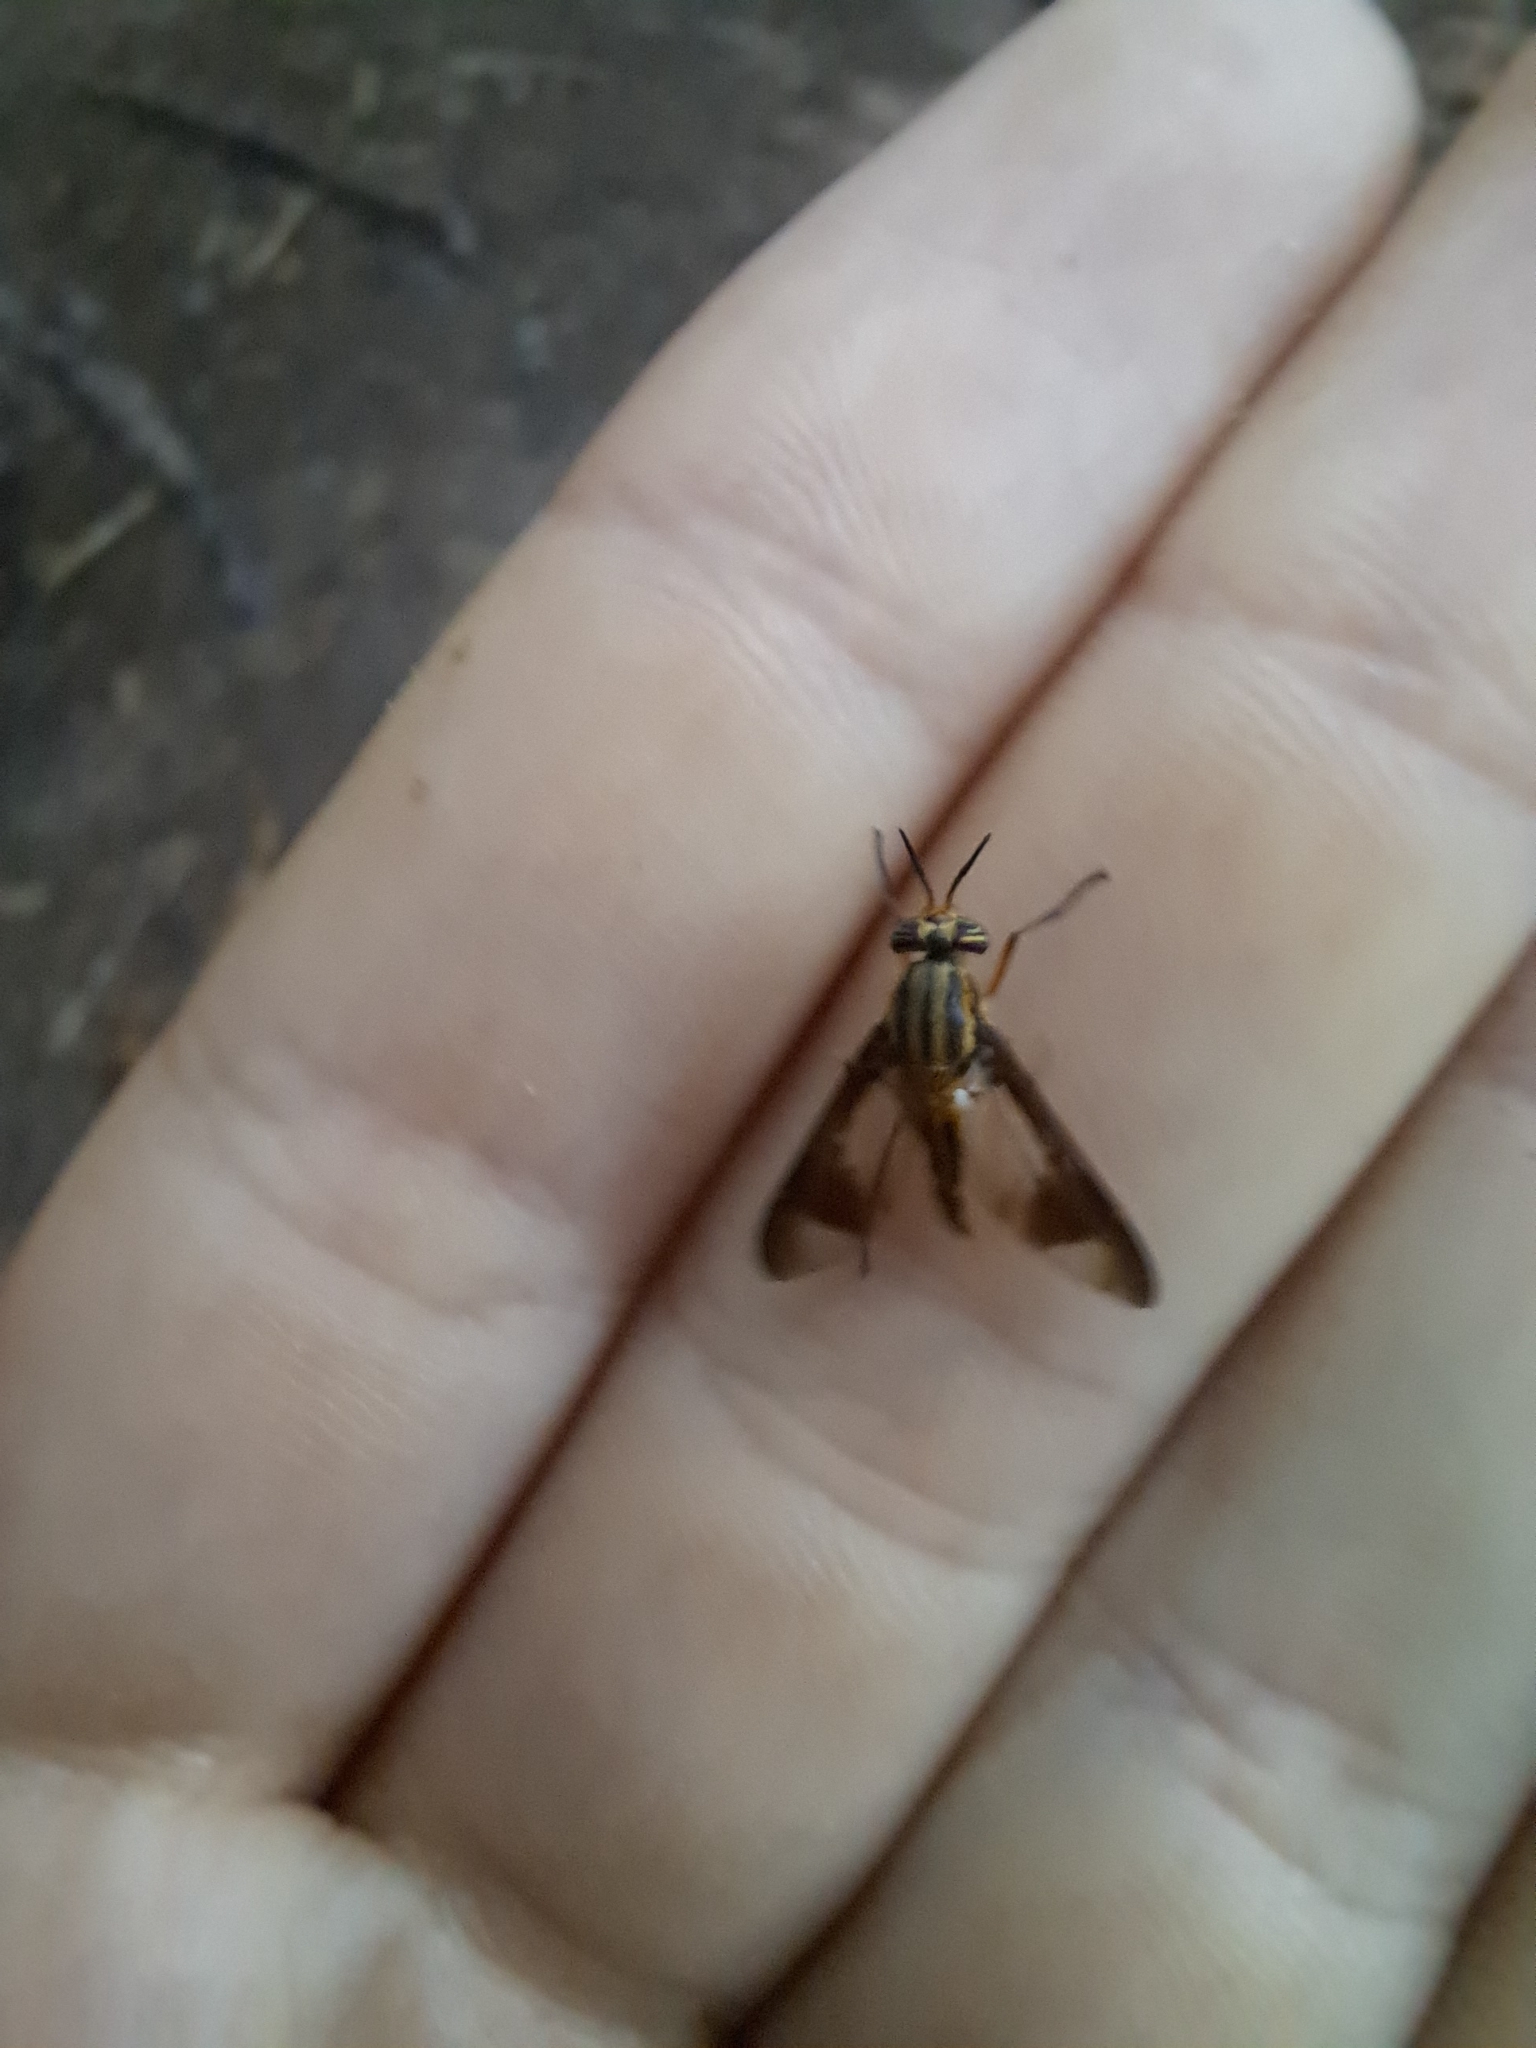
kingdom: Animalia
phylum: Arthropoda
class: Insecta
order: Diptera
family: Tabanidae
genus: Chrysops
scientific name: Chrysops vittatus
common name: Striped deer fly
